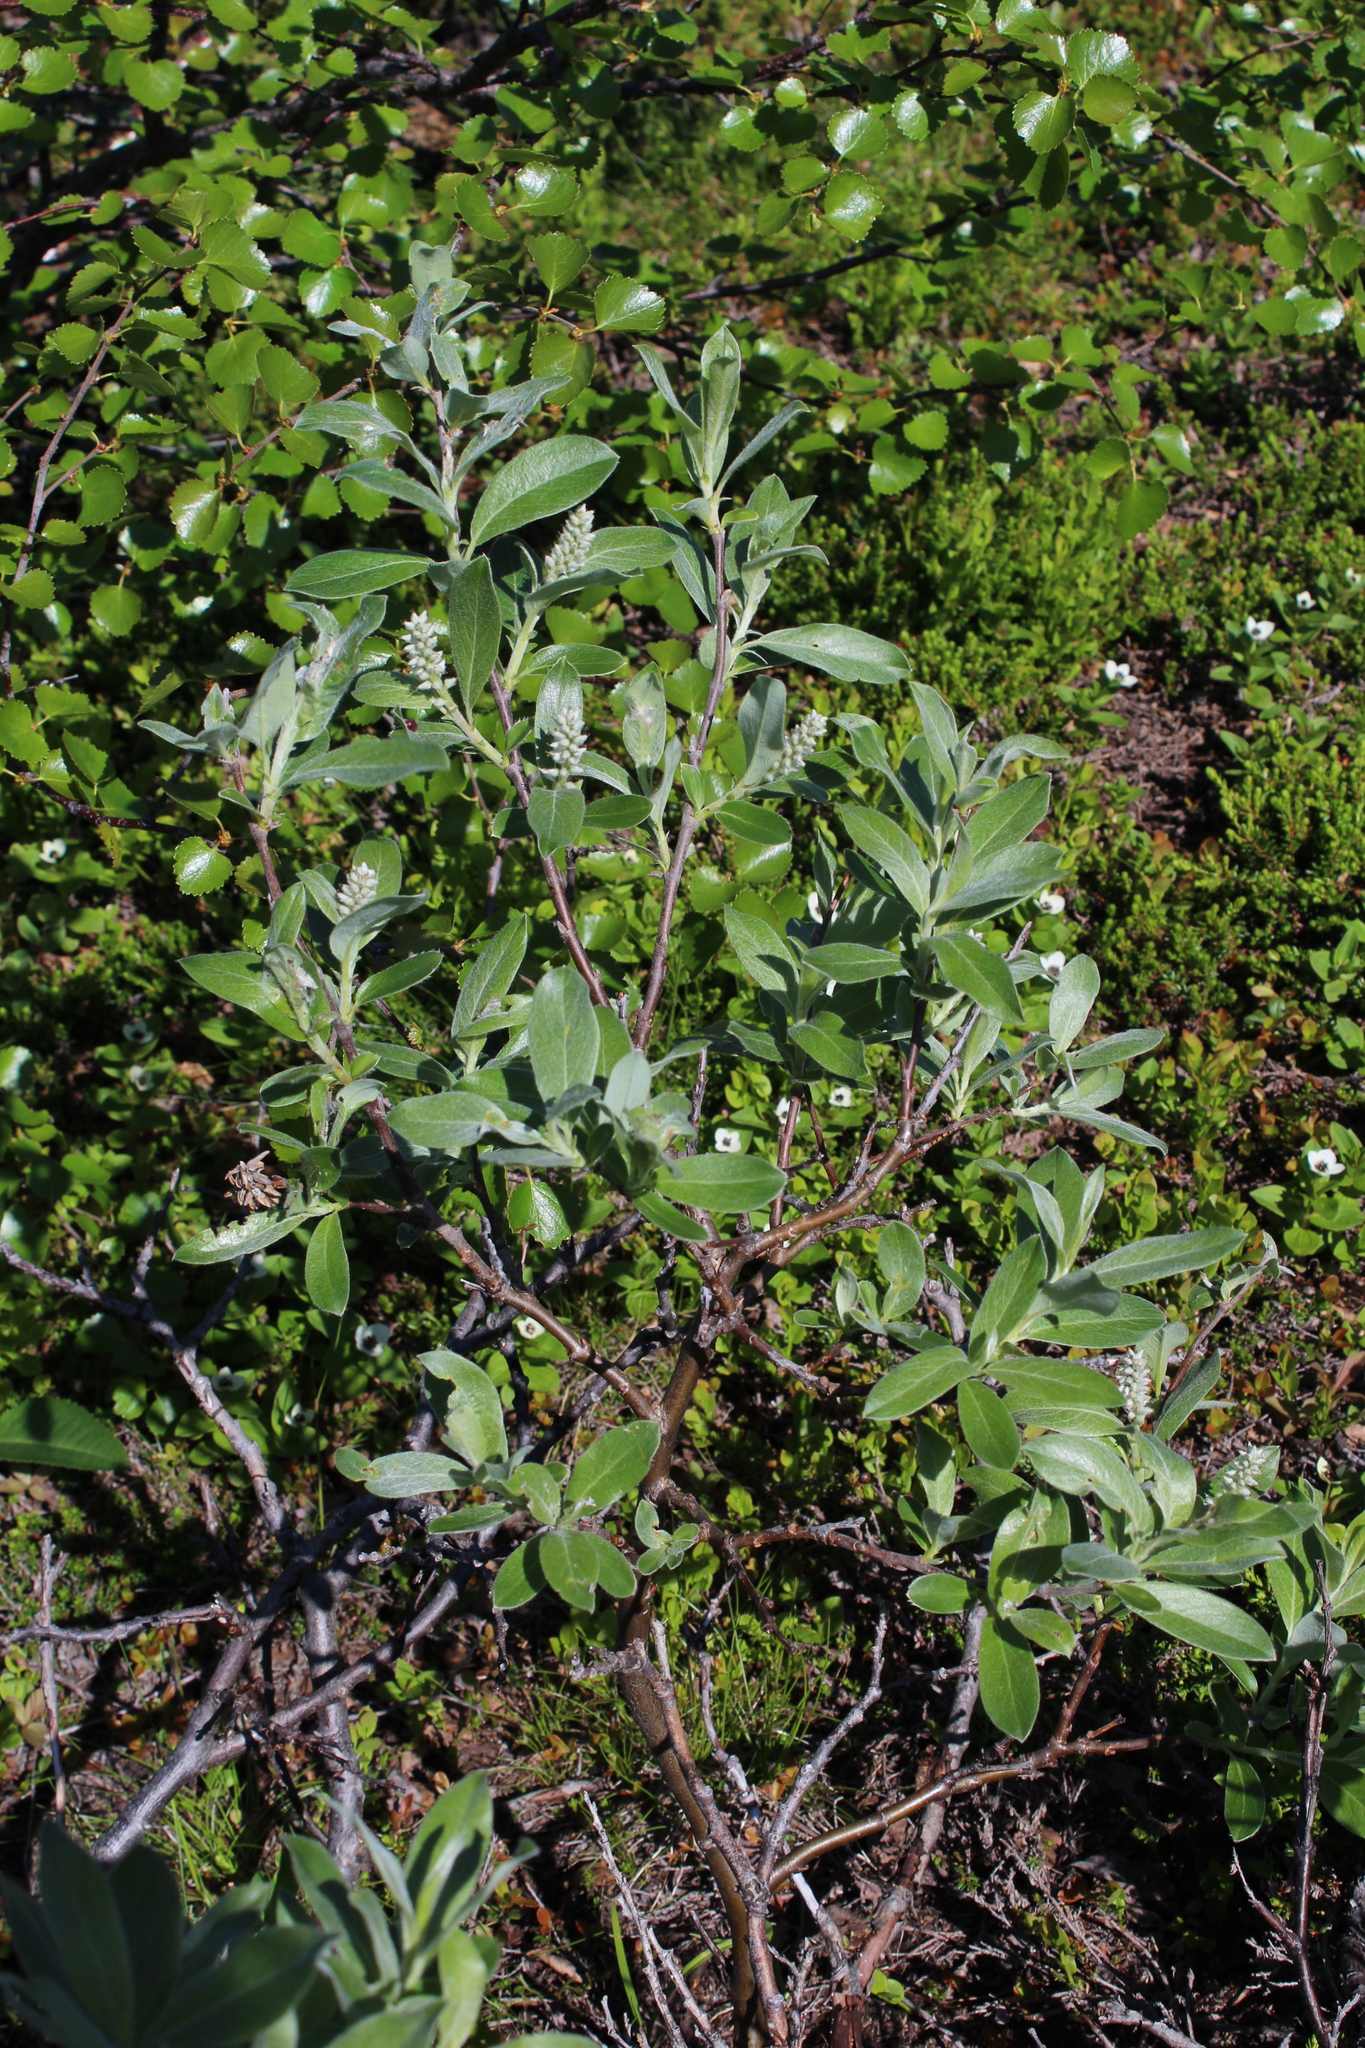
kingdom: Plantae
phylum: Tracheophyta
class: Magnoliopsida
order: Malpighiales
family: Salicaceae
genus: Salix
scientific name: Salix glauca
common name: Glaucous willow
